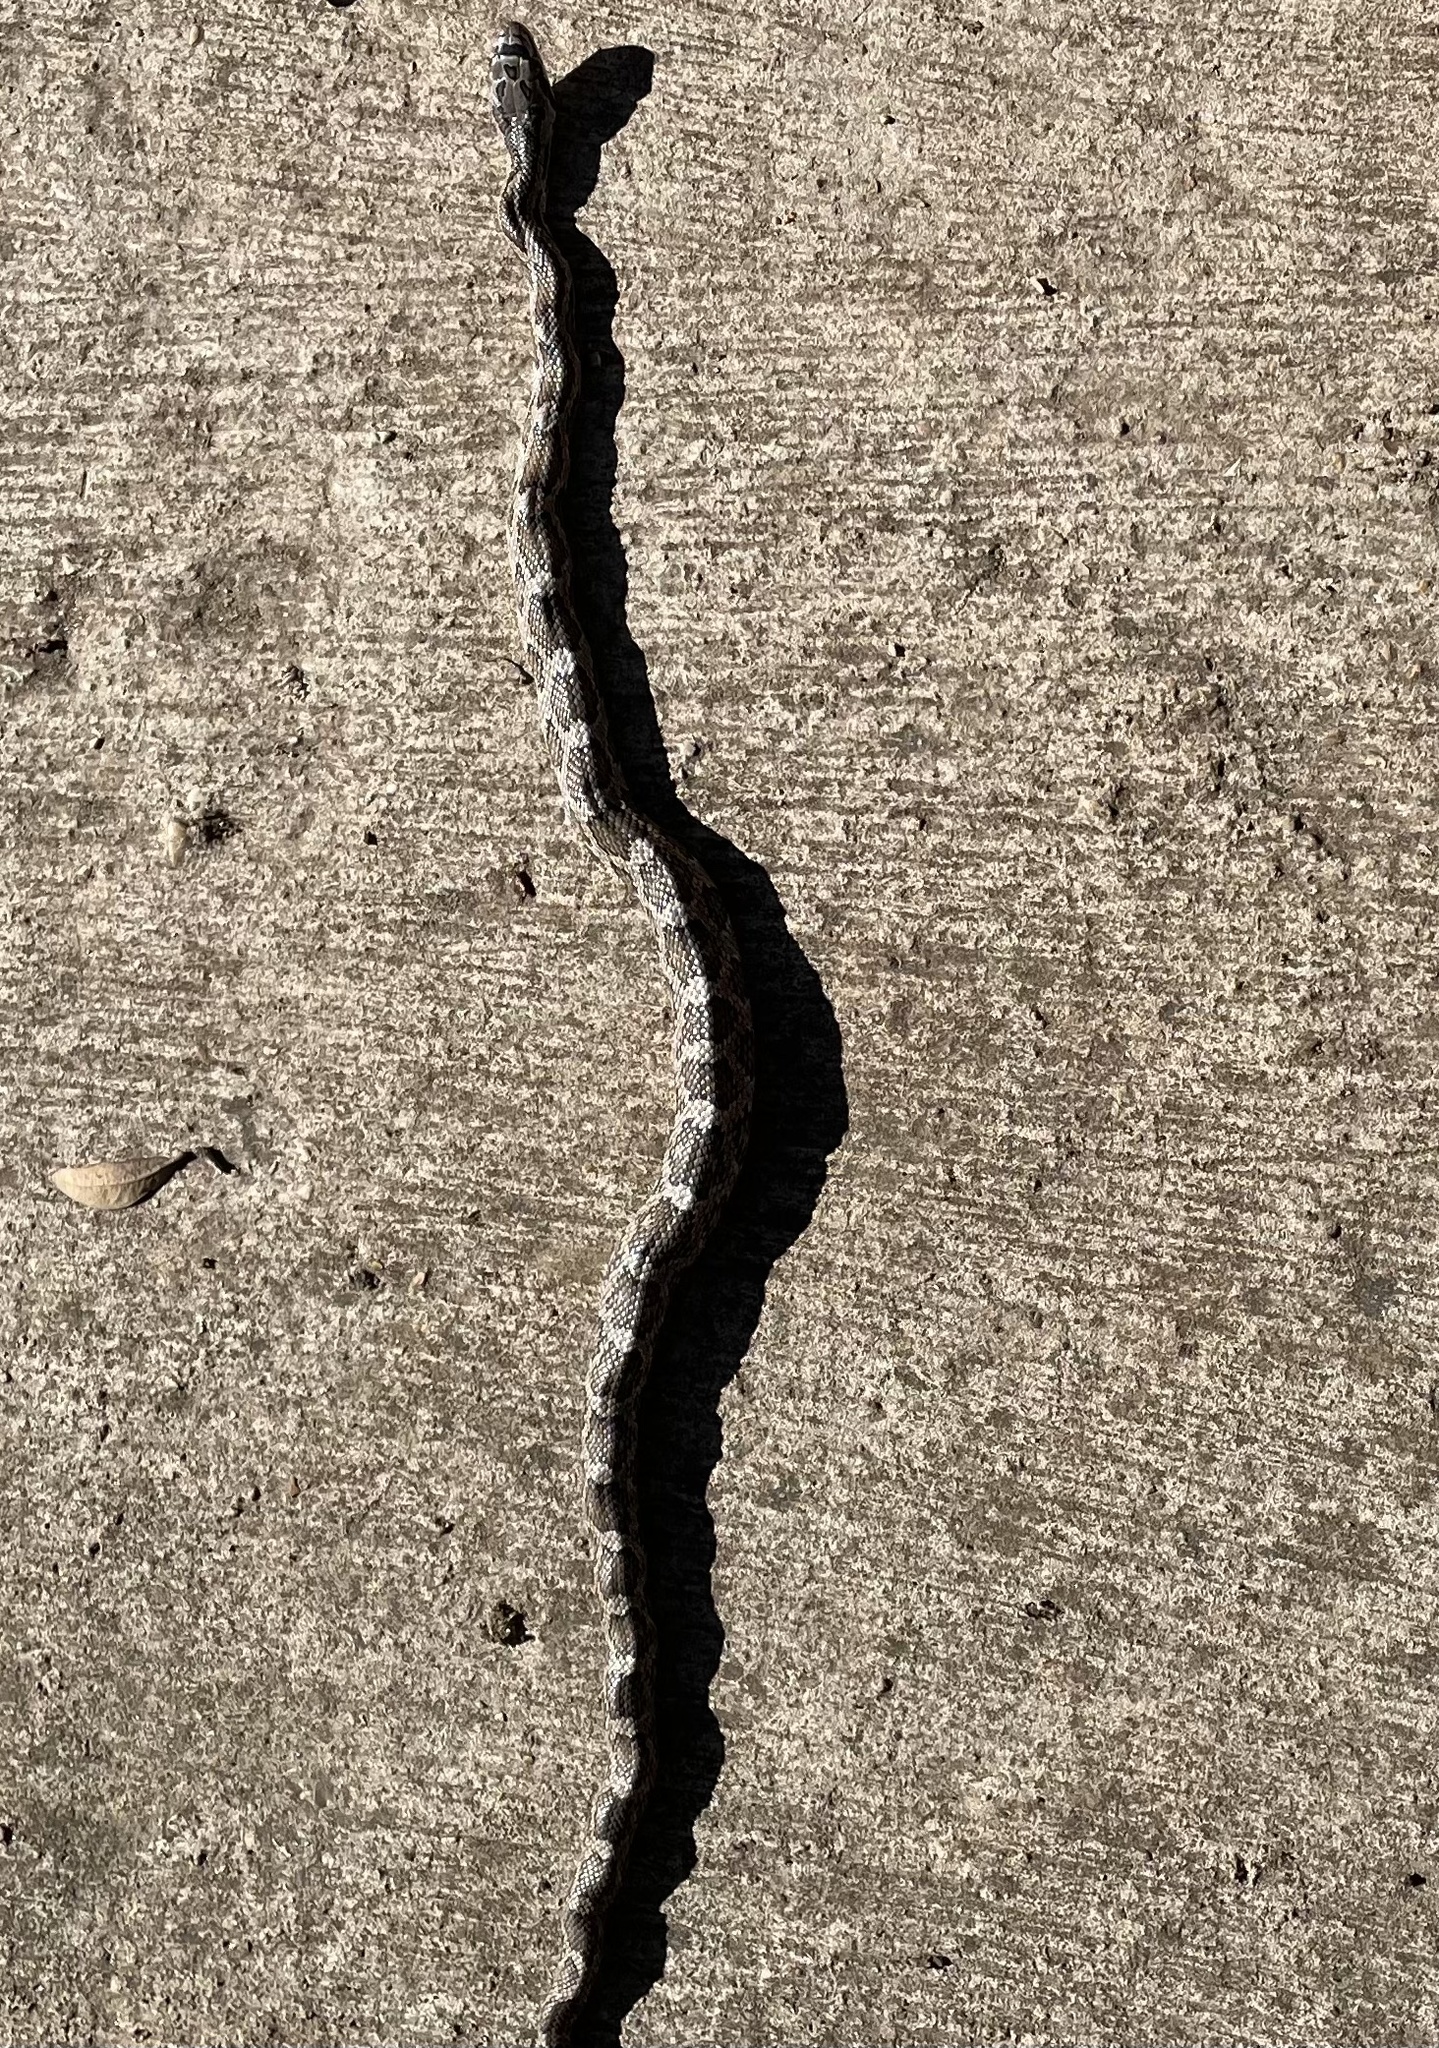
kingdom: Animalia
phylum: Chordata
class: Squamata
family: Colubridae
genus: Pantherophis
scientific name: Pantherophis obsoletus
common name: Black rat snake
